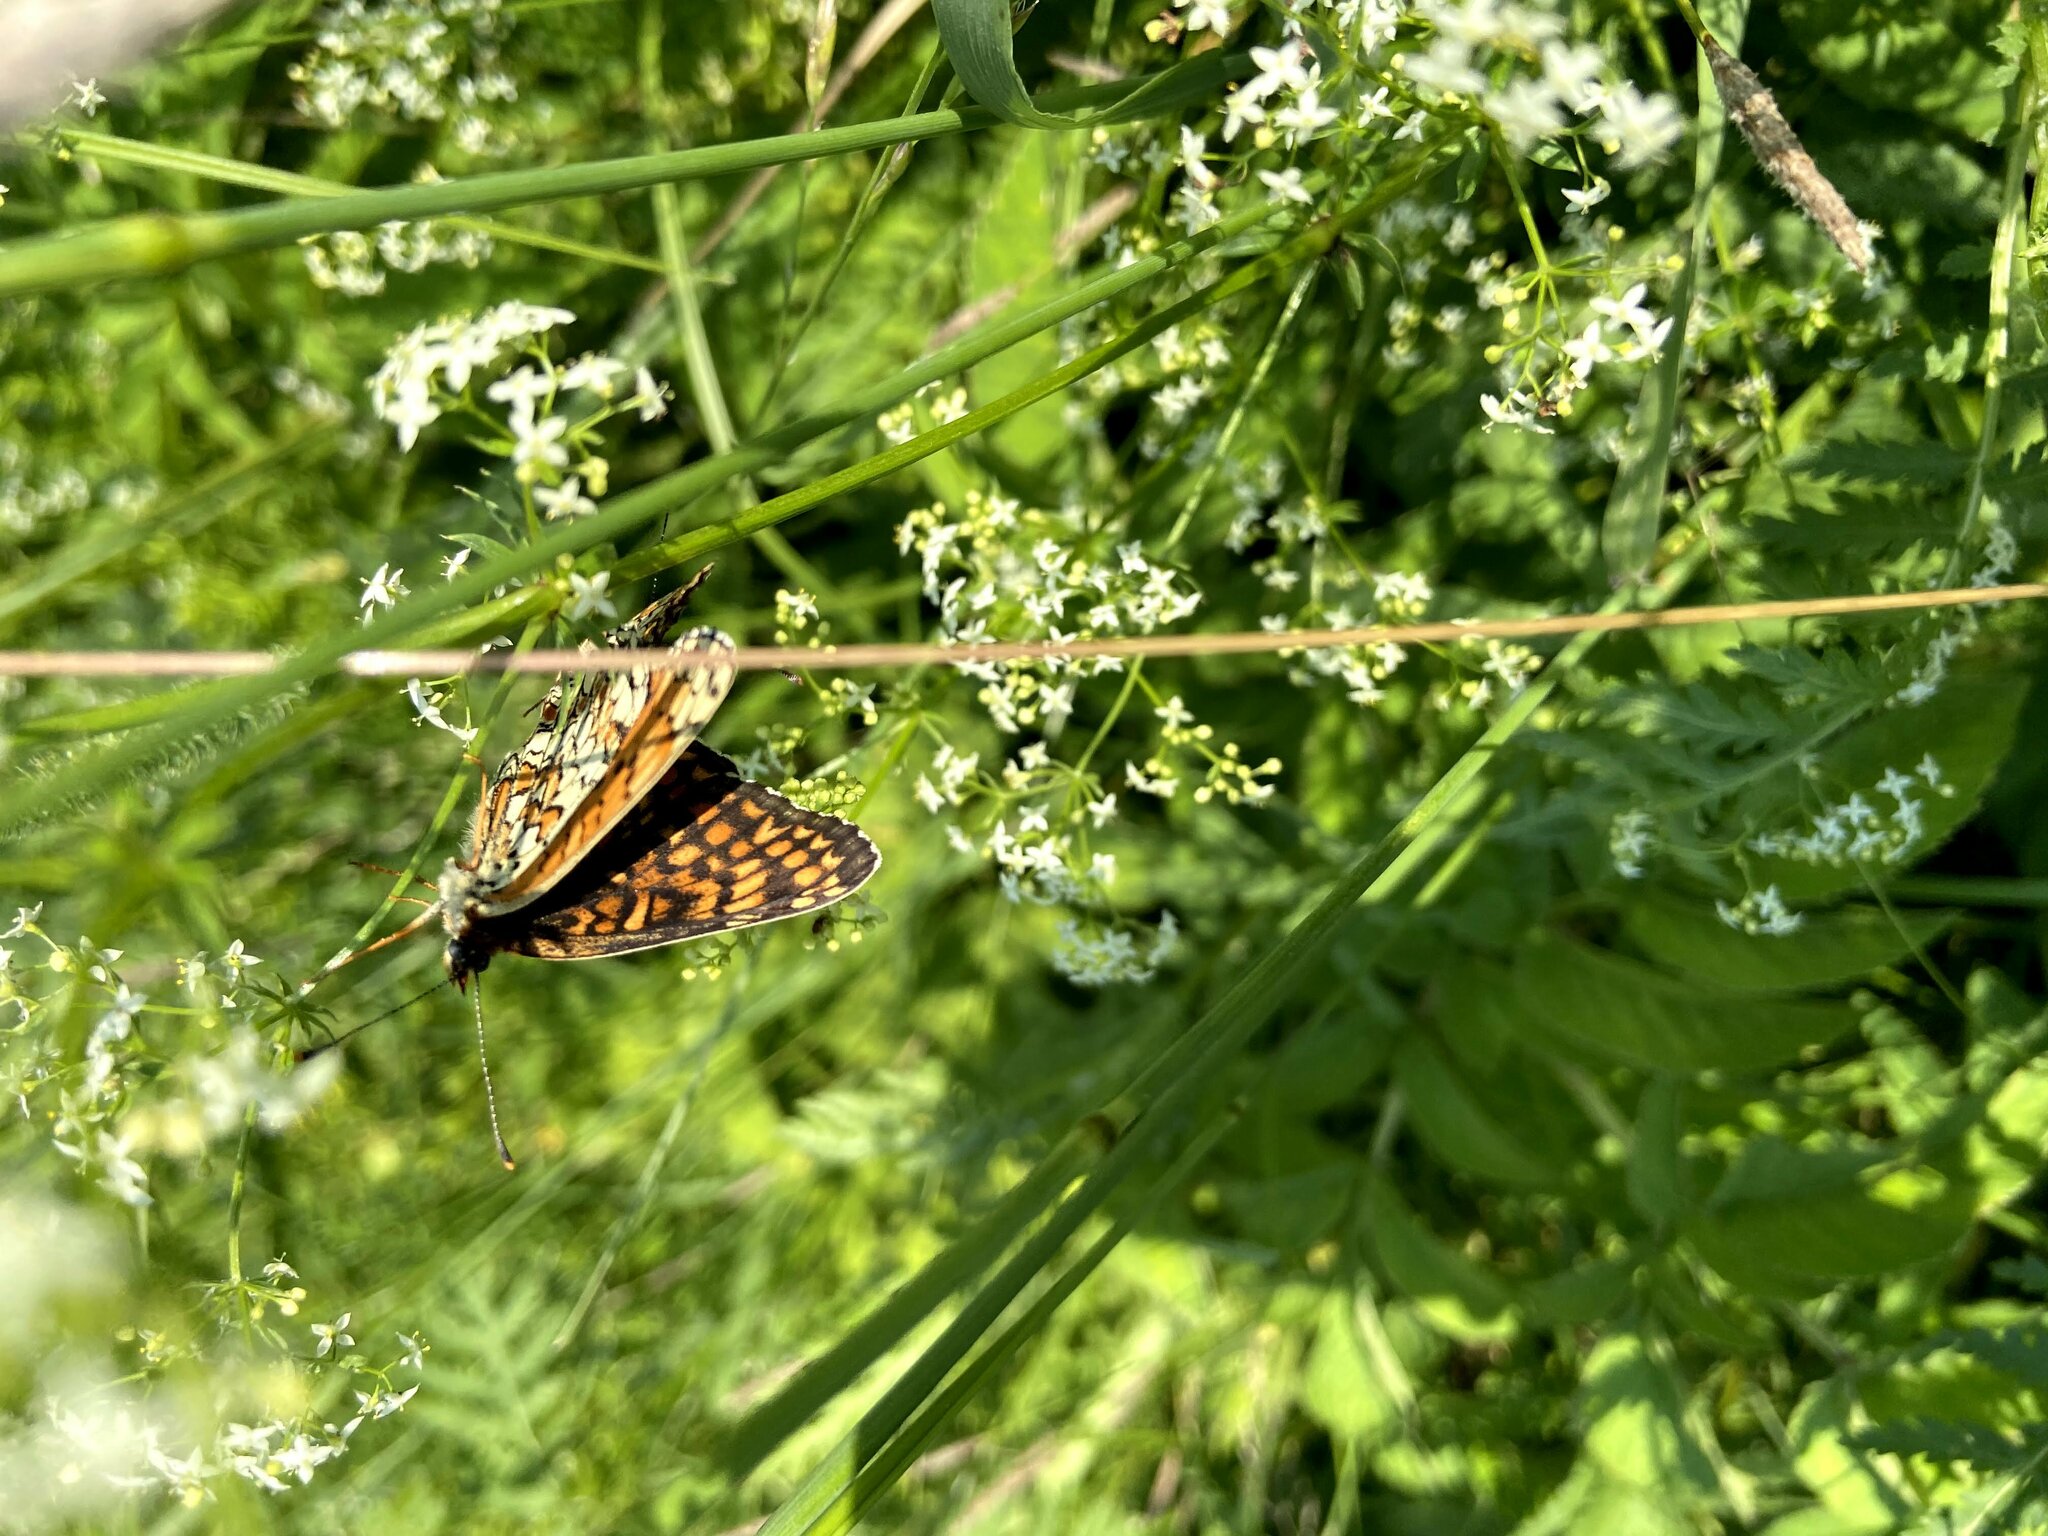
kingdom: Animalia
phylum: Arthropoda
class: Insecta
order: Lepidoptera
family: Nymphalidae
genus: Melitaea
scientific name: Melitaea phoebe
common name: Knapweed fritillary
